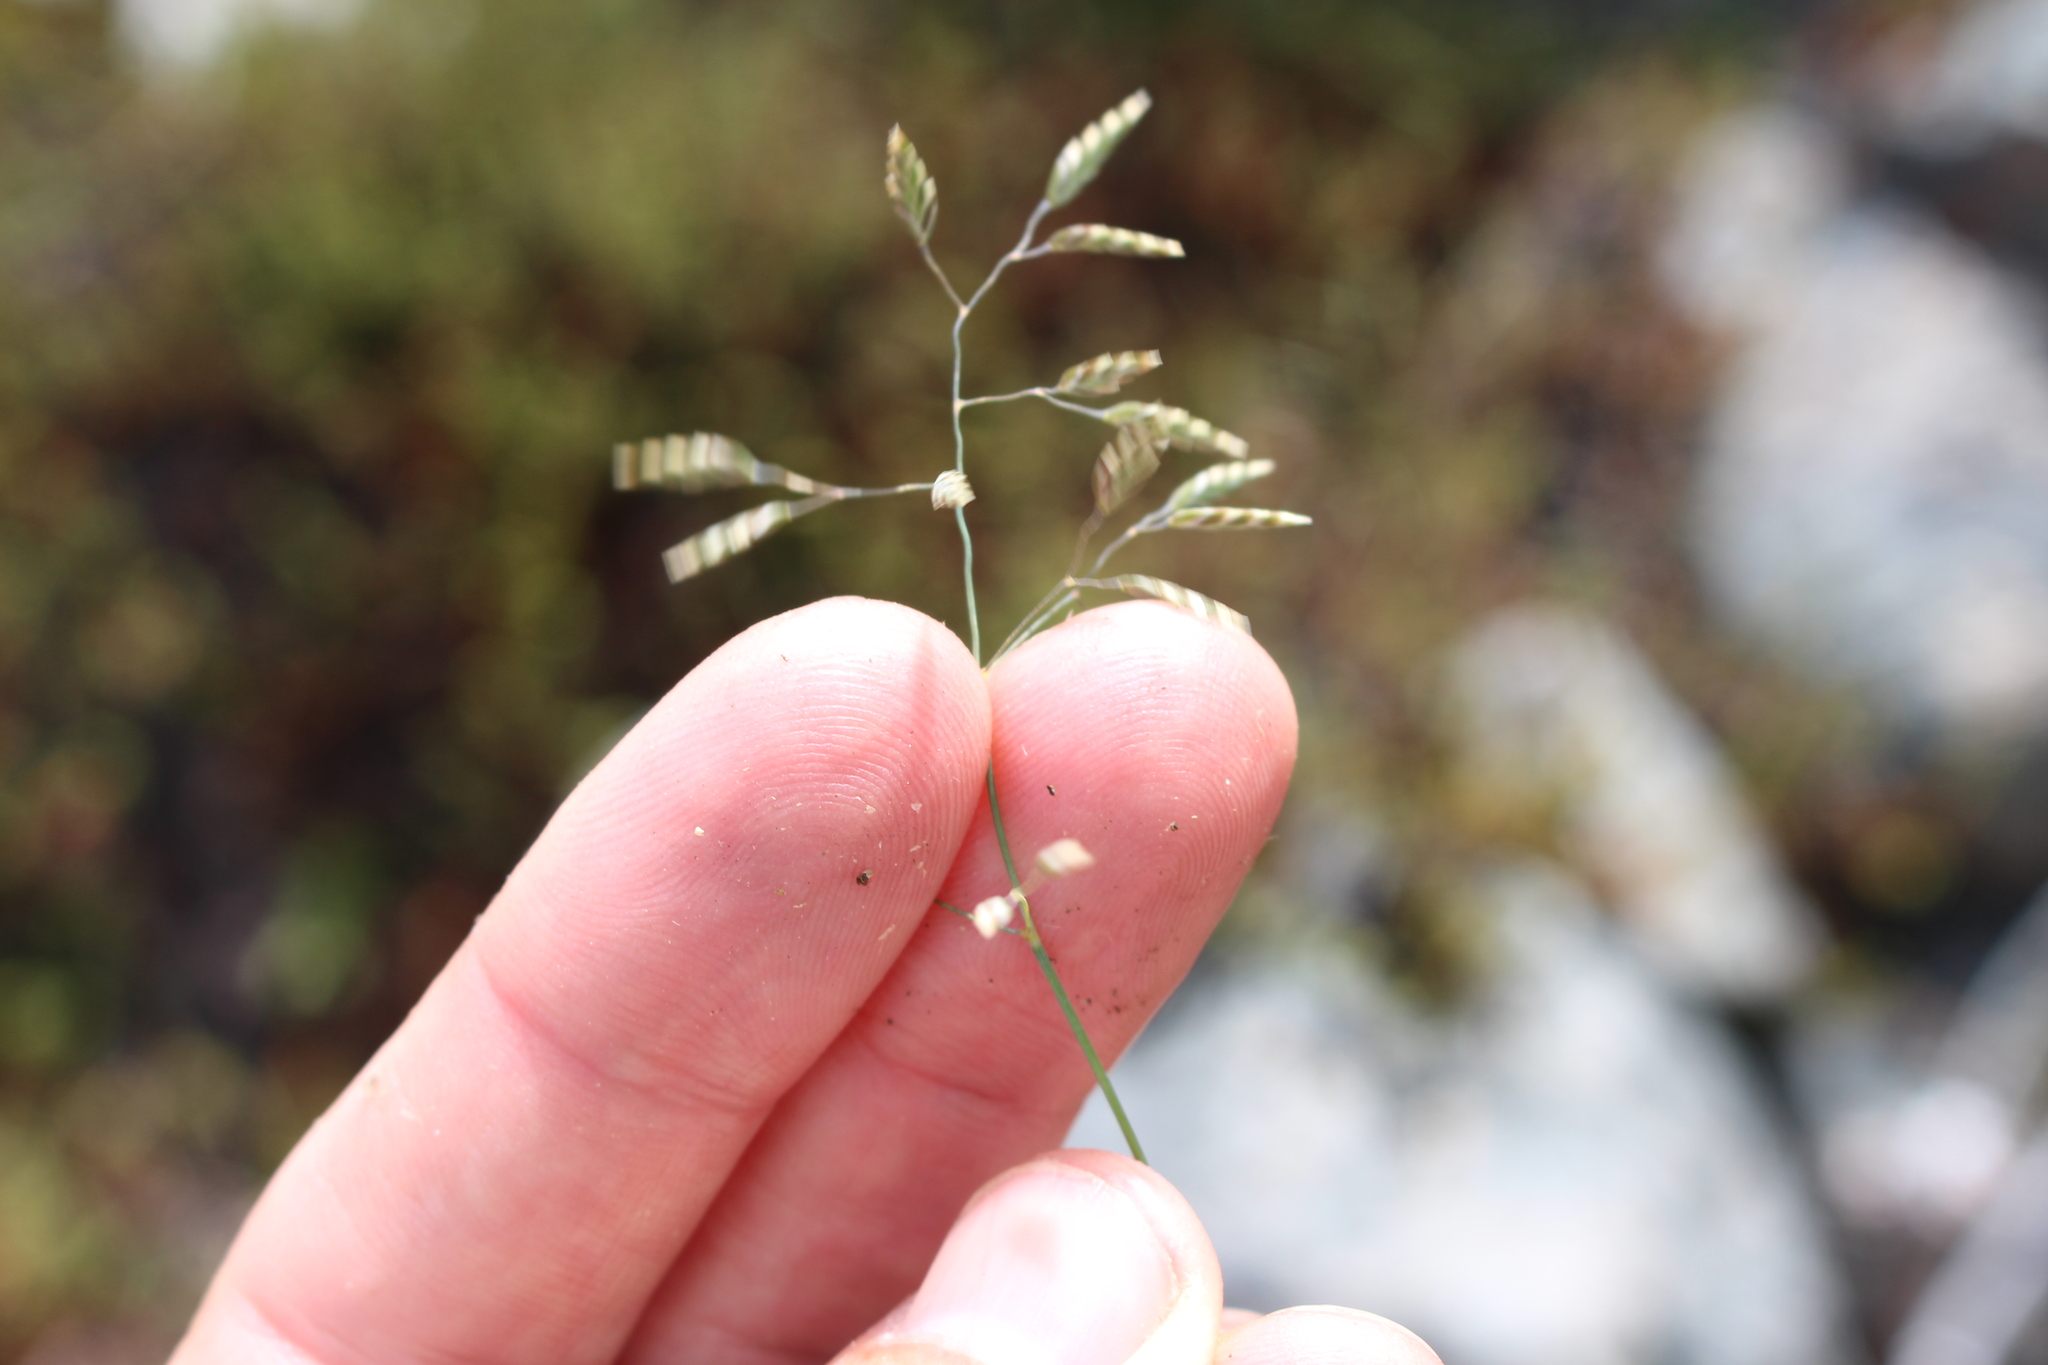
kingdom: Plantae
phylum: Tracheophyta
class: Liliopsida
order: Poales
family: Poaceae
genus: Poa
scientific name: Poa colensoi
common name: Blue tussock
